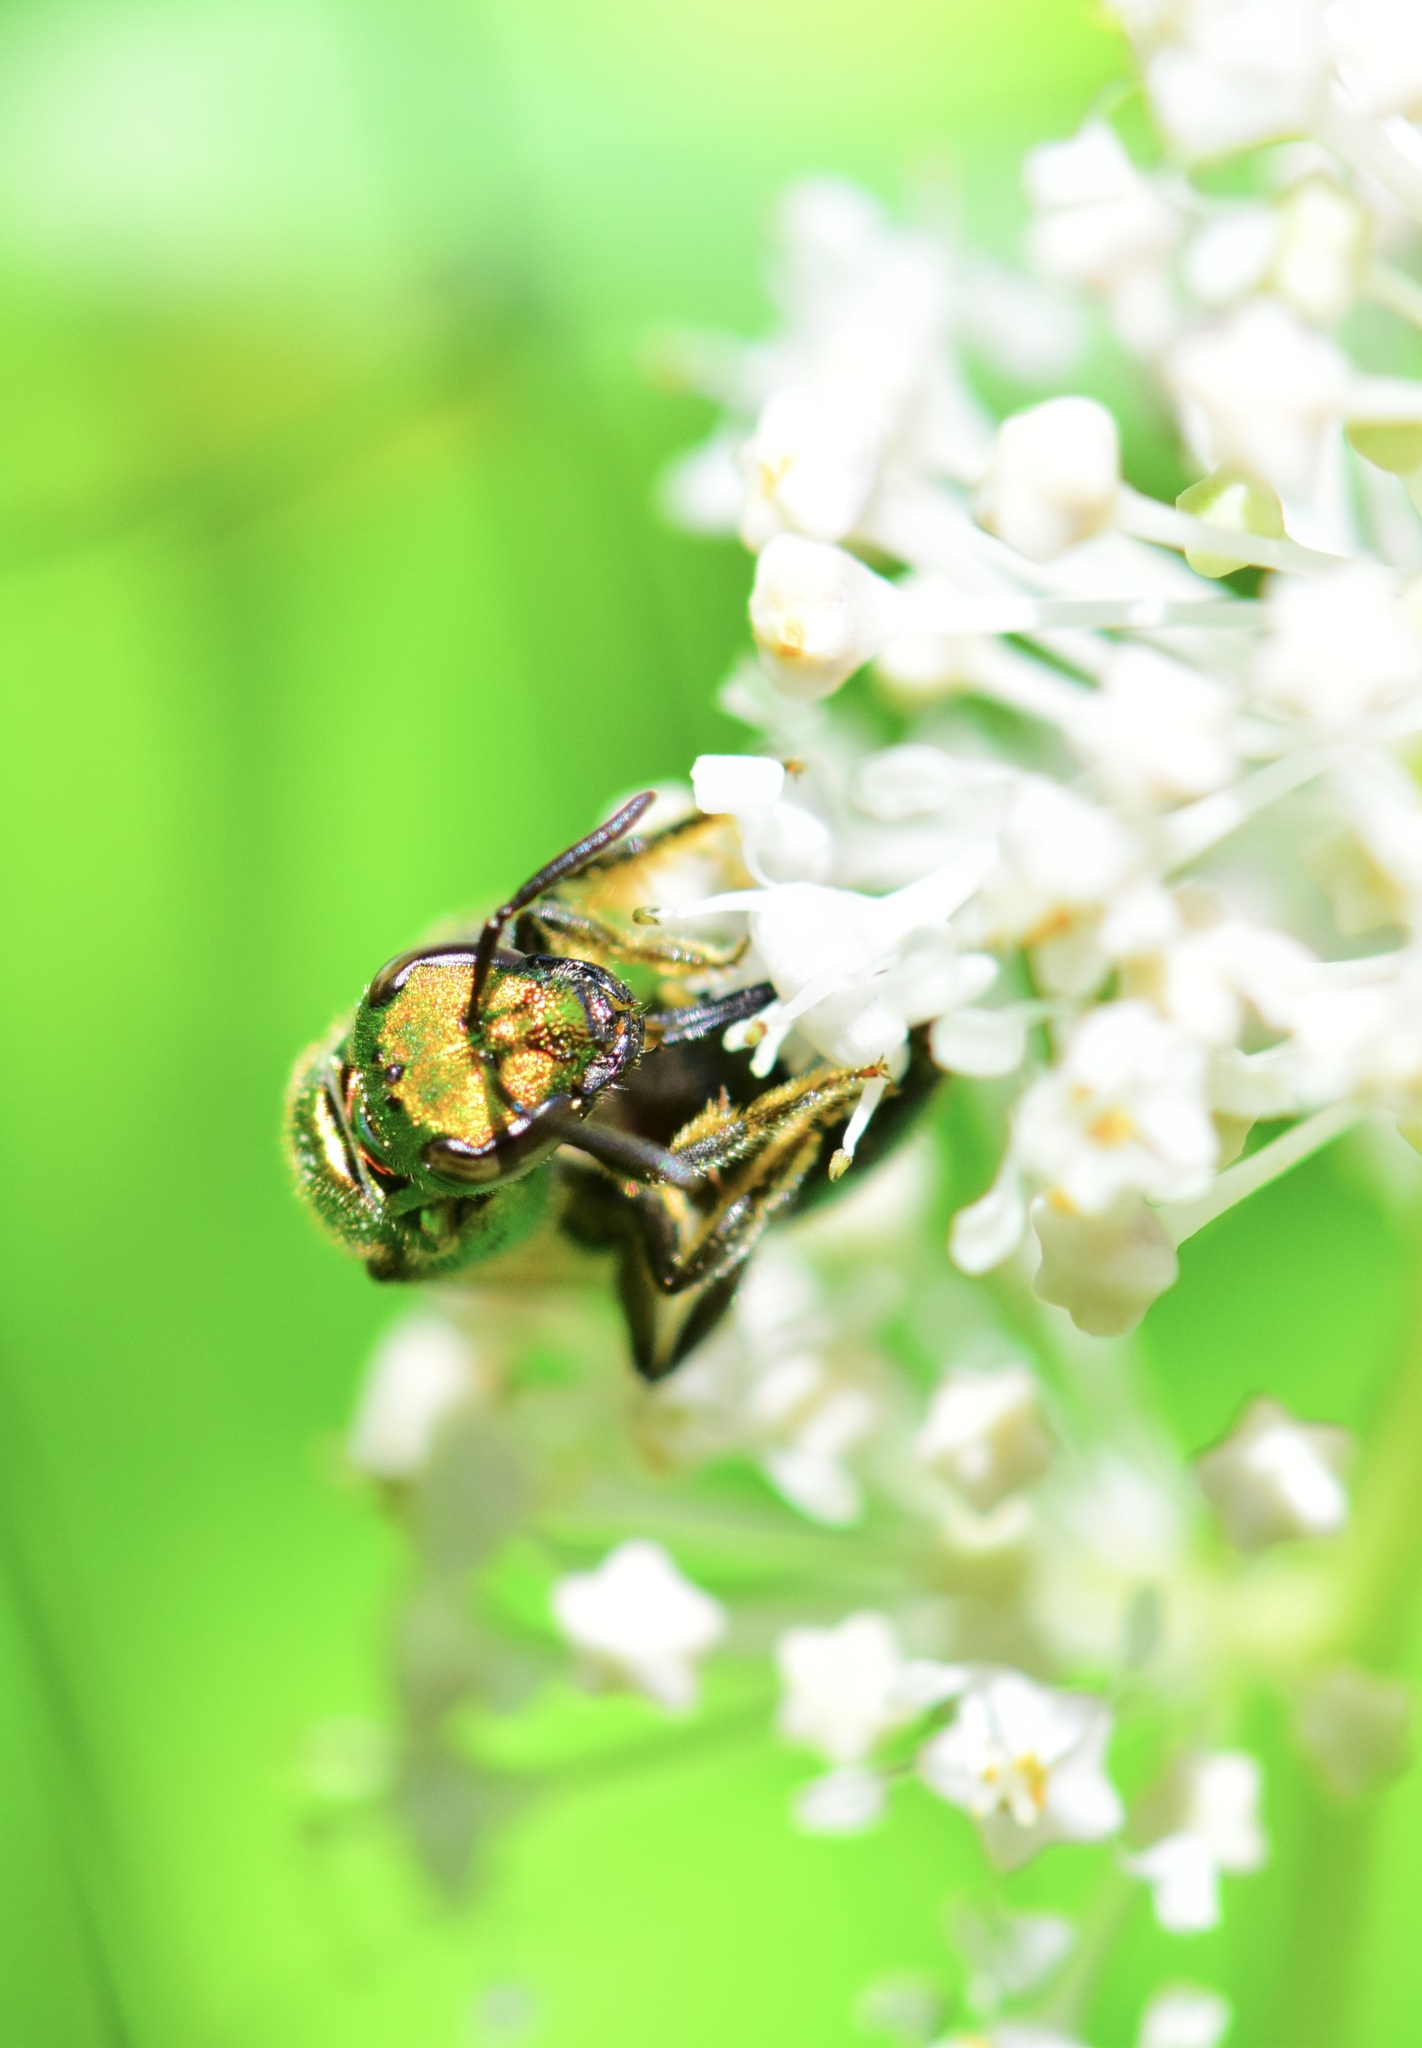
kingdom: Animalia
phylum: Arthropoda
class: Insecta
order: Hymenoptera
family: Halictidae
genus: Augochlora
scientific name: Augochlora pura
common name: Pure green sweat bee
